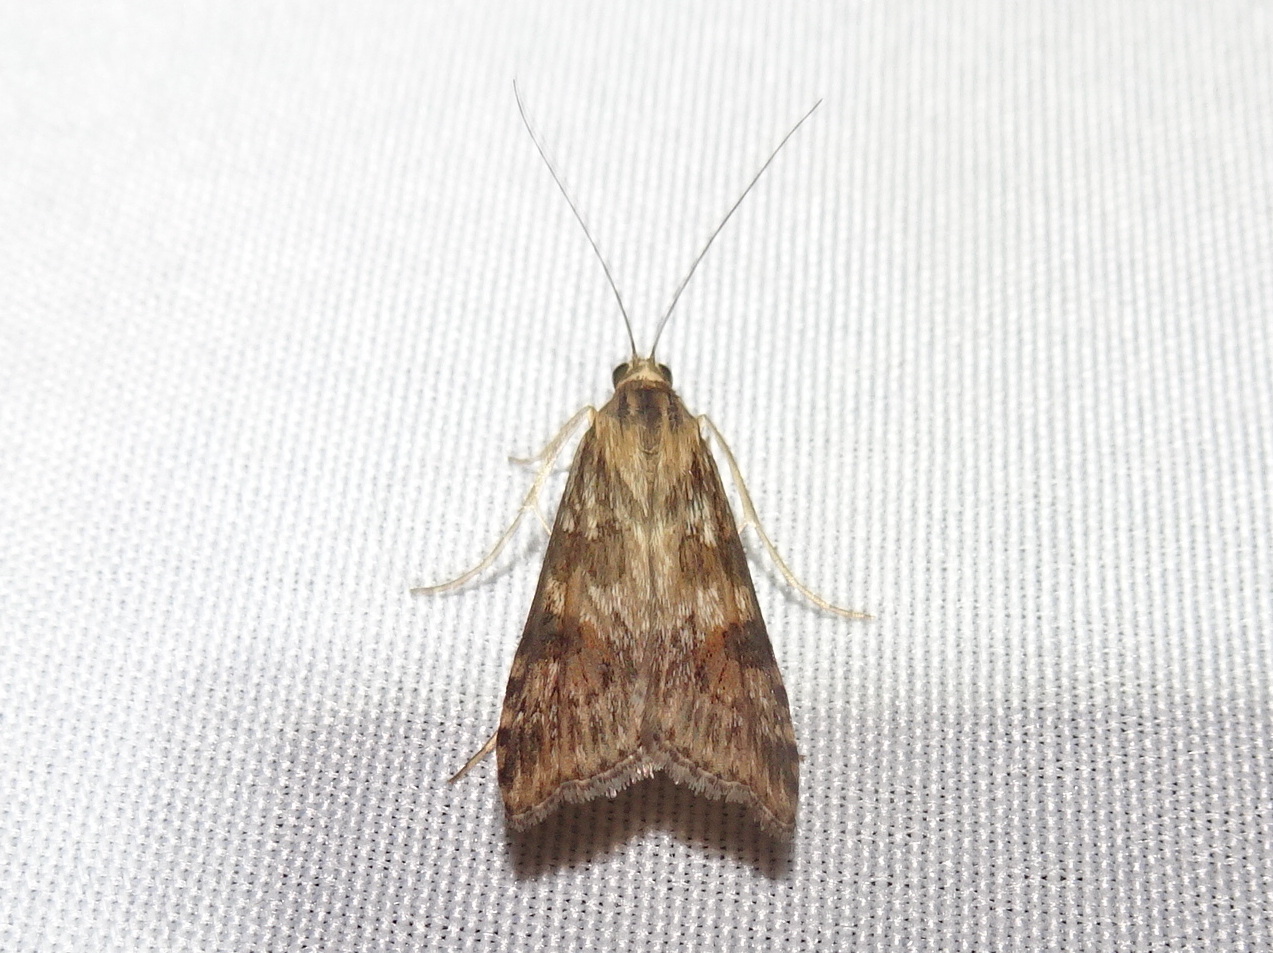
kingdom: Animalia
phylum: Arthropoda
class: Insecta
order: Lepidoptera
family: Crambidae
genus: Nomophila
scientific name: Nomophila nearctica
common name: American rush veneer
